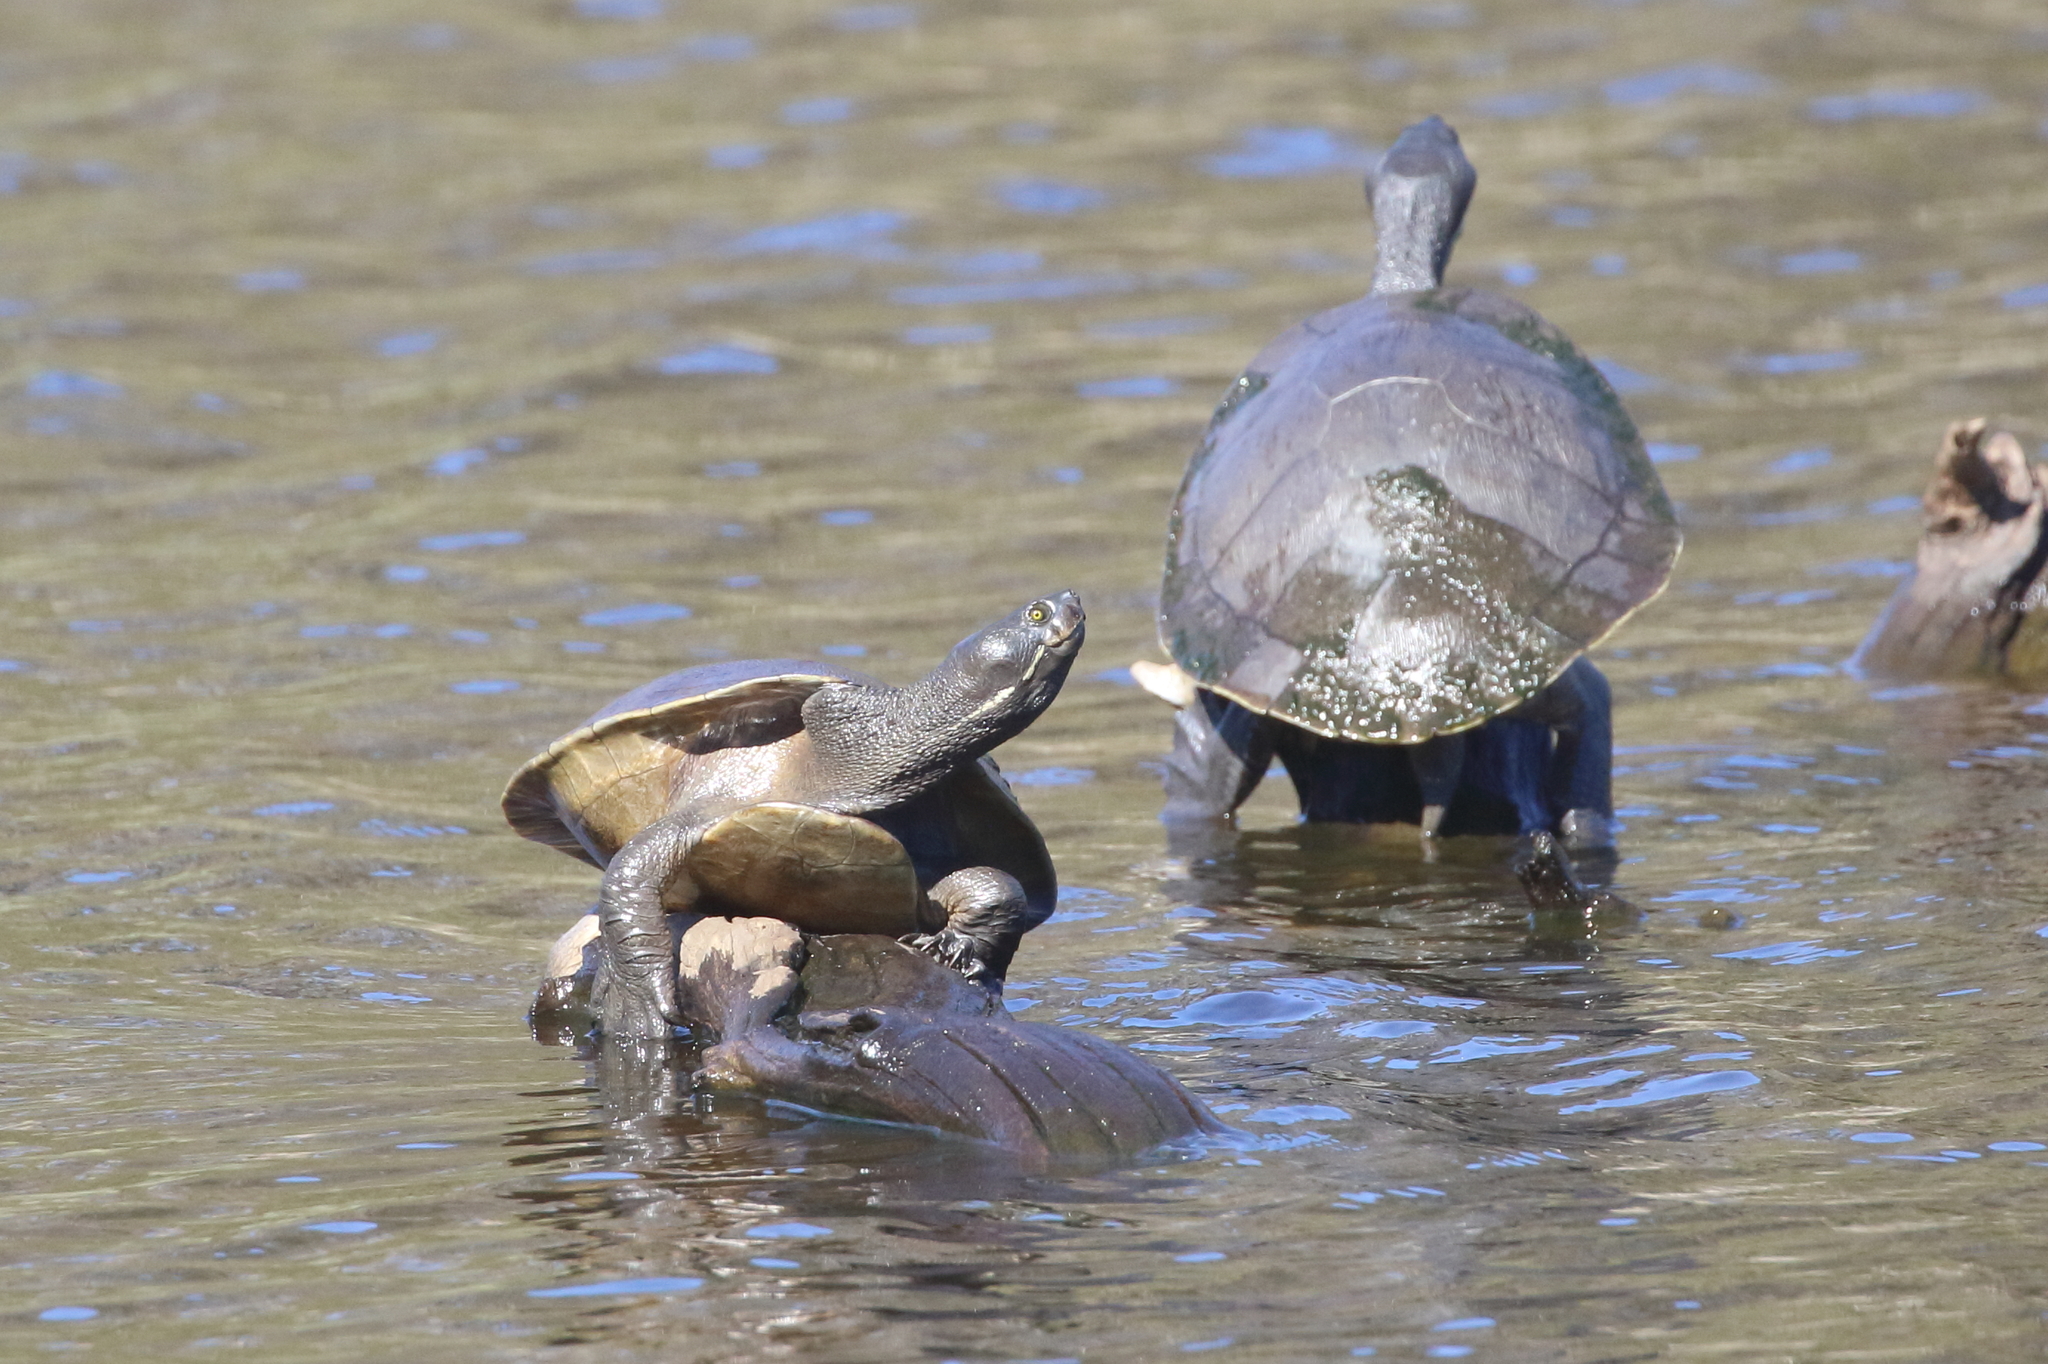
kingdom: Animalia
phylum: Chordata
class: Testudines
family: Chelidae
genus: Emydura
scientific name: Emydura macquarii
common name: Murray river turtle
